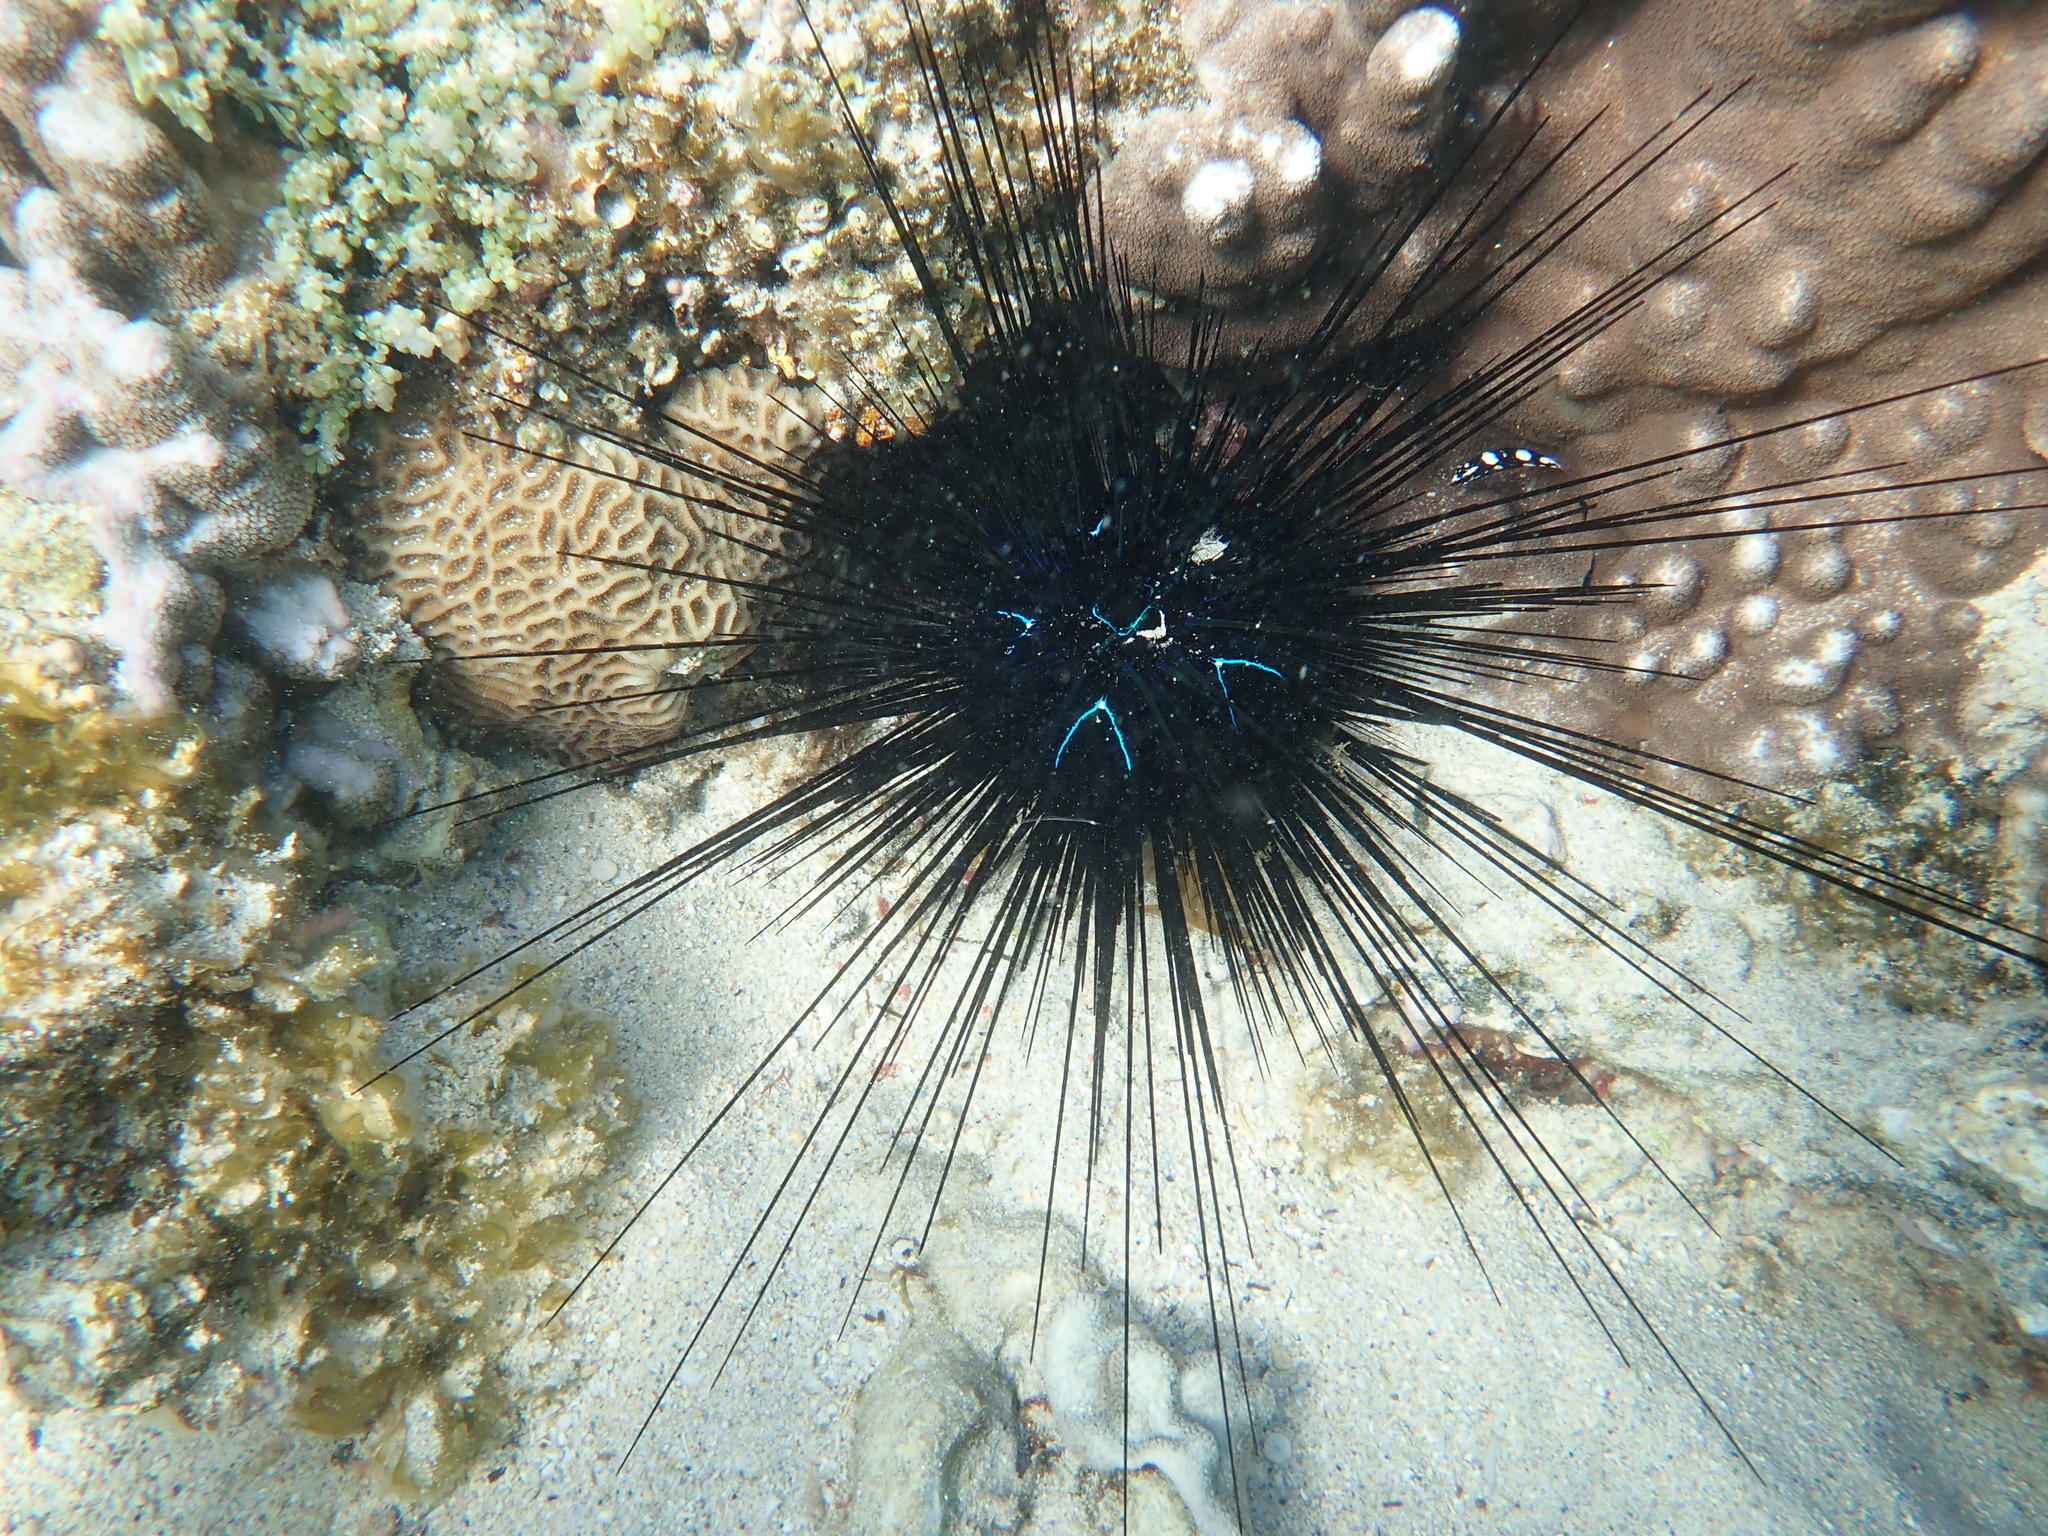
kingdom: Animalia
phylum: Echinodermata
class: Echinoidea
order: Diadematoida
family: Diadematidae
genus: Diadema
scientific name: Diadema savignyi
